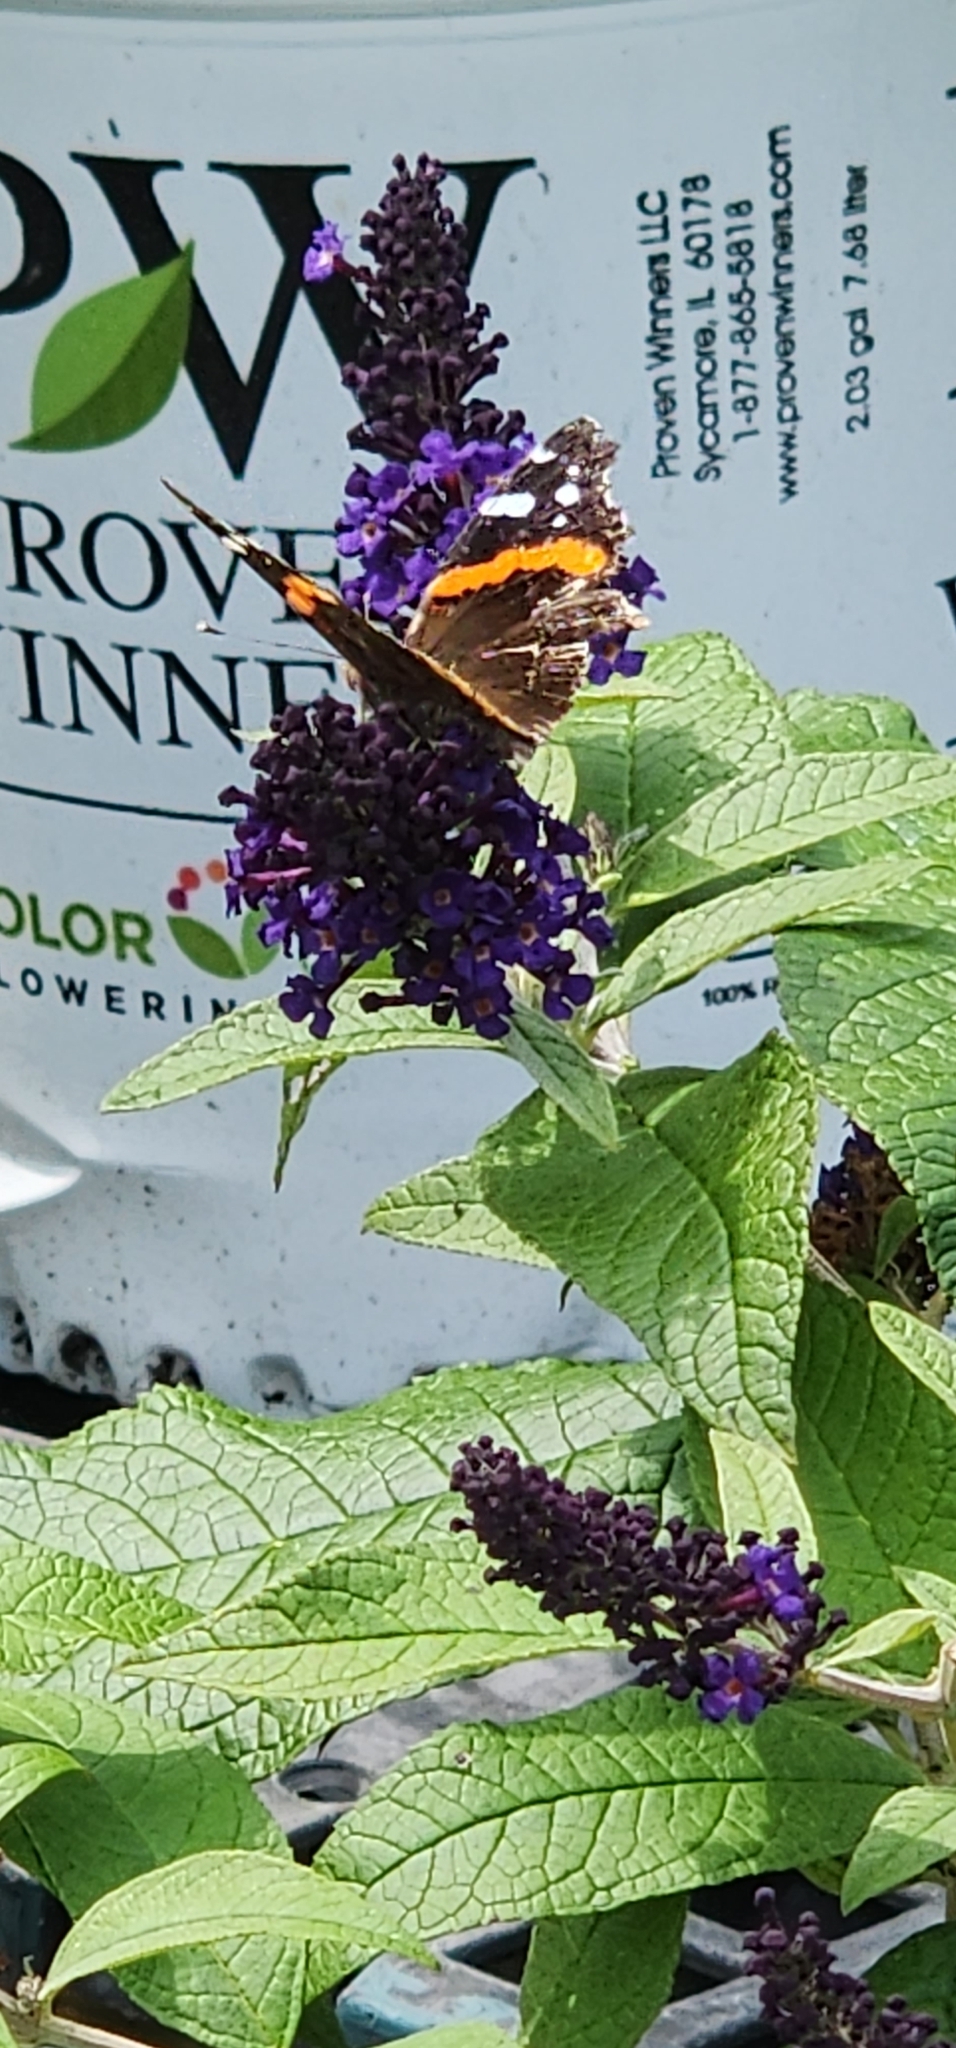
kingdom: Animalia
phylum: Arthropoda
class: Insecta
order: Lepidoptera
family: Nymphalidae
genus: Vanessa
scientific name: Vanessa atalanta
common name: Red admiral
